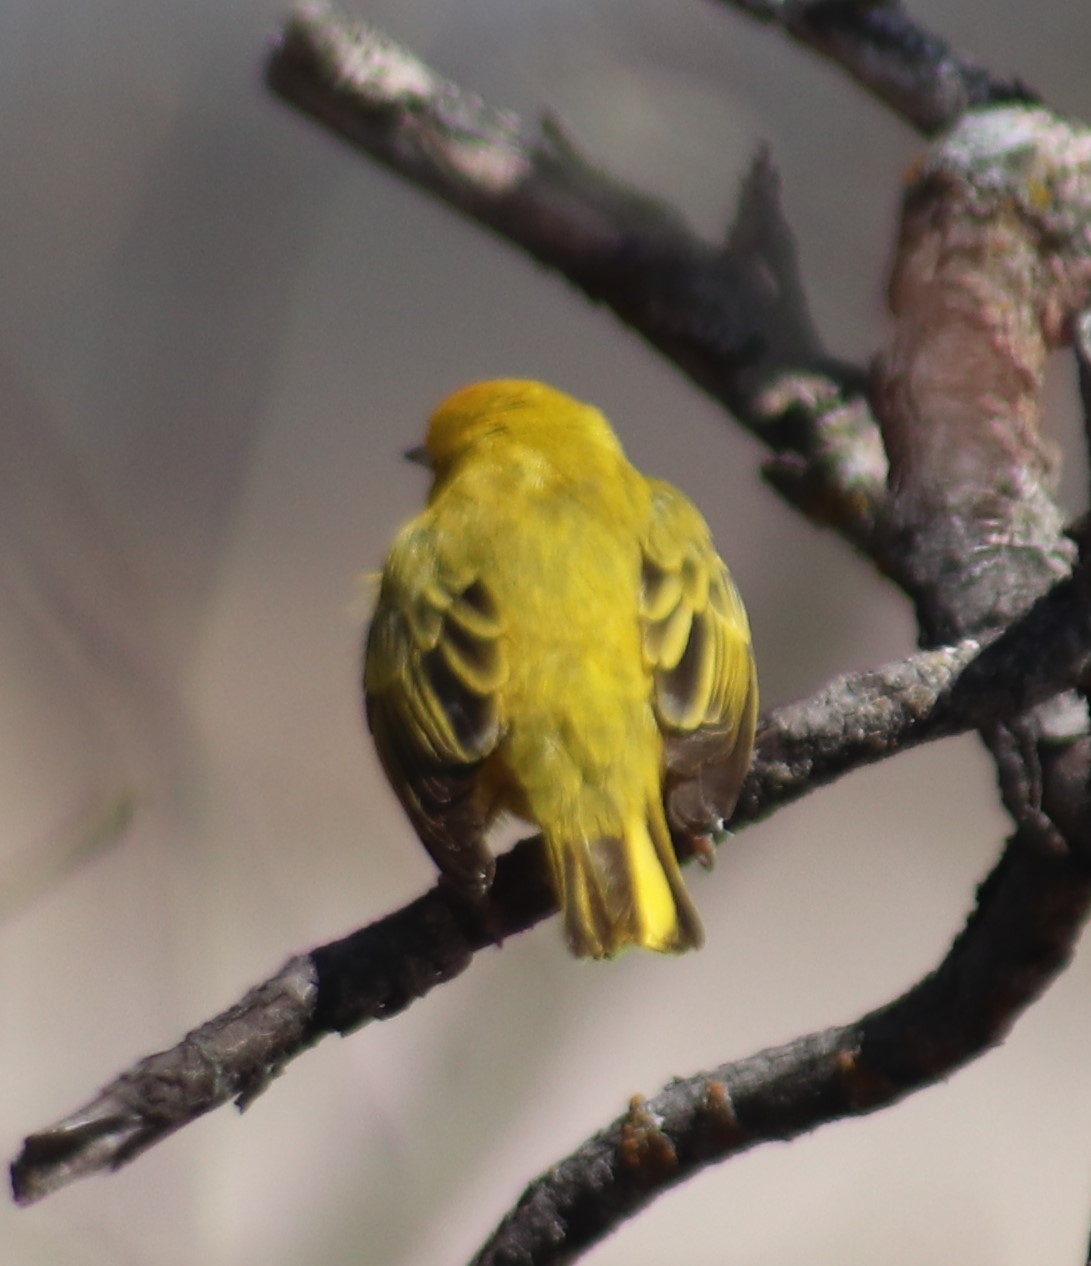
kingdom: Animalia
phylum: Chordata
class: Aves
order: Passeriformes
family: Parulidae
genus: Setophaga
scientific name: Setophaga petechia
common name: Yellow warbler
